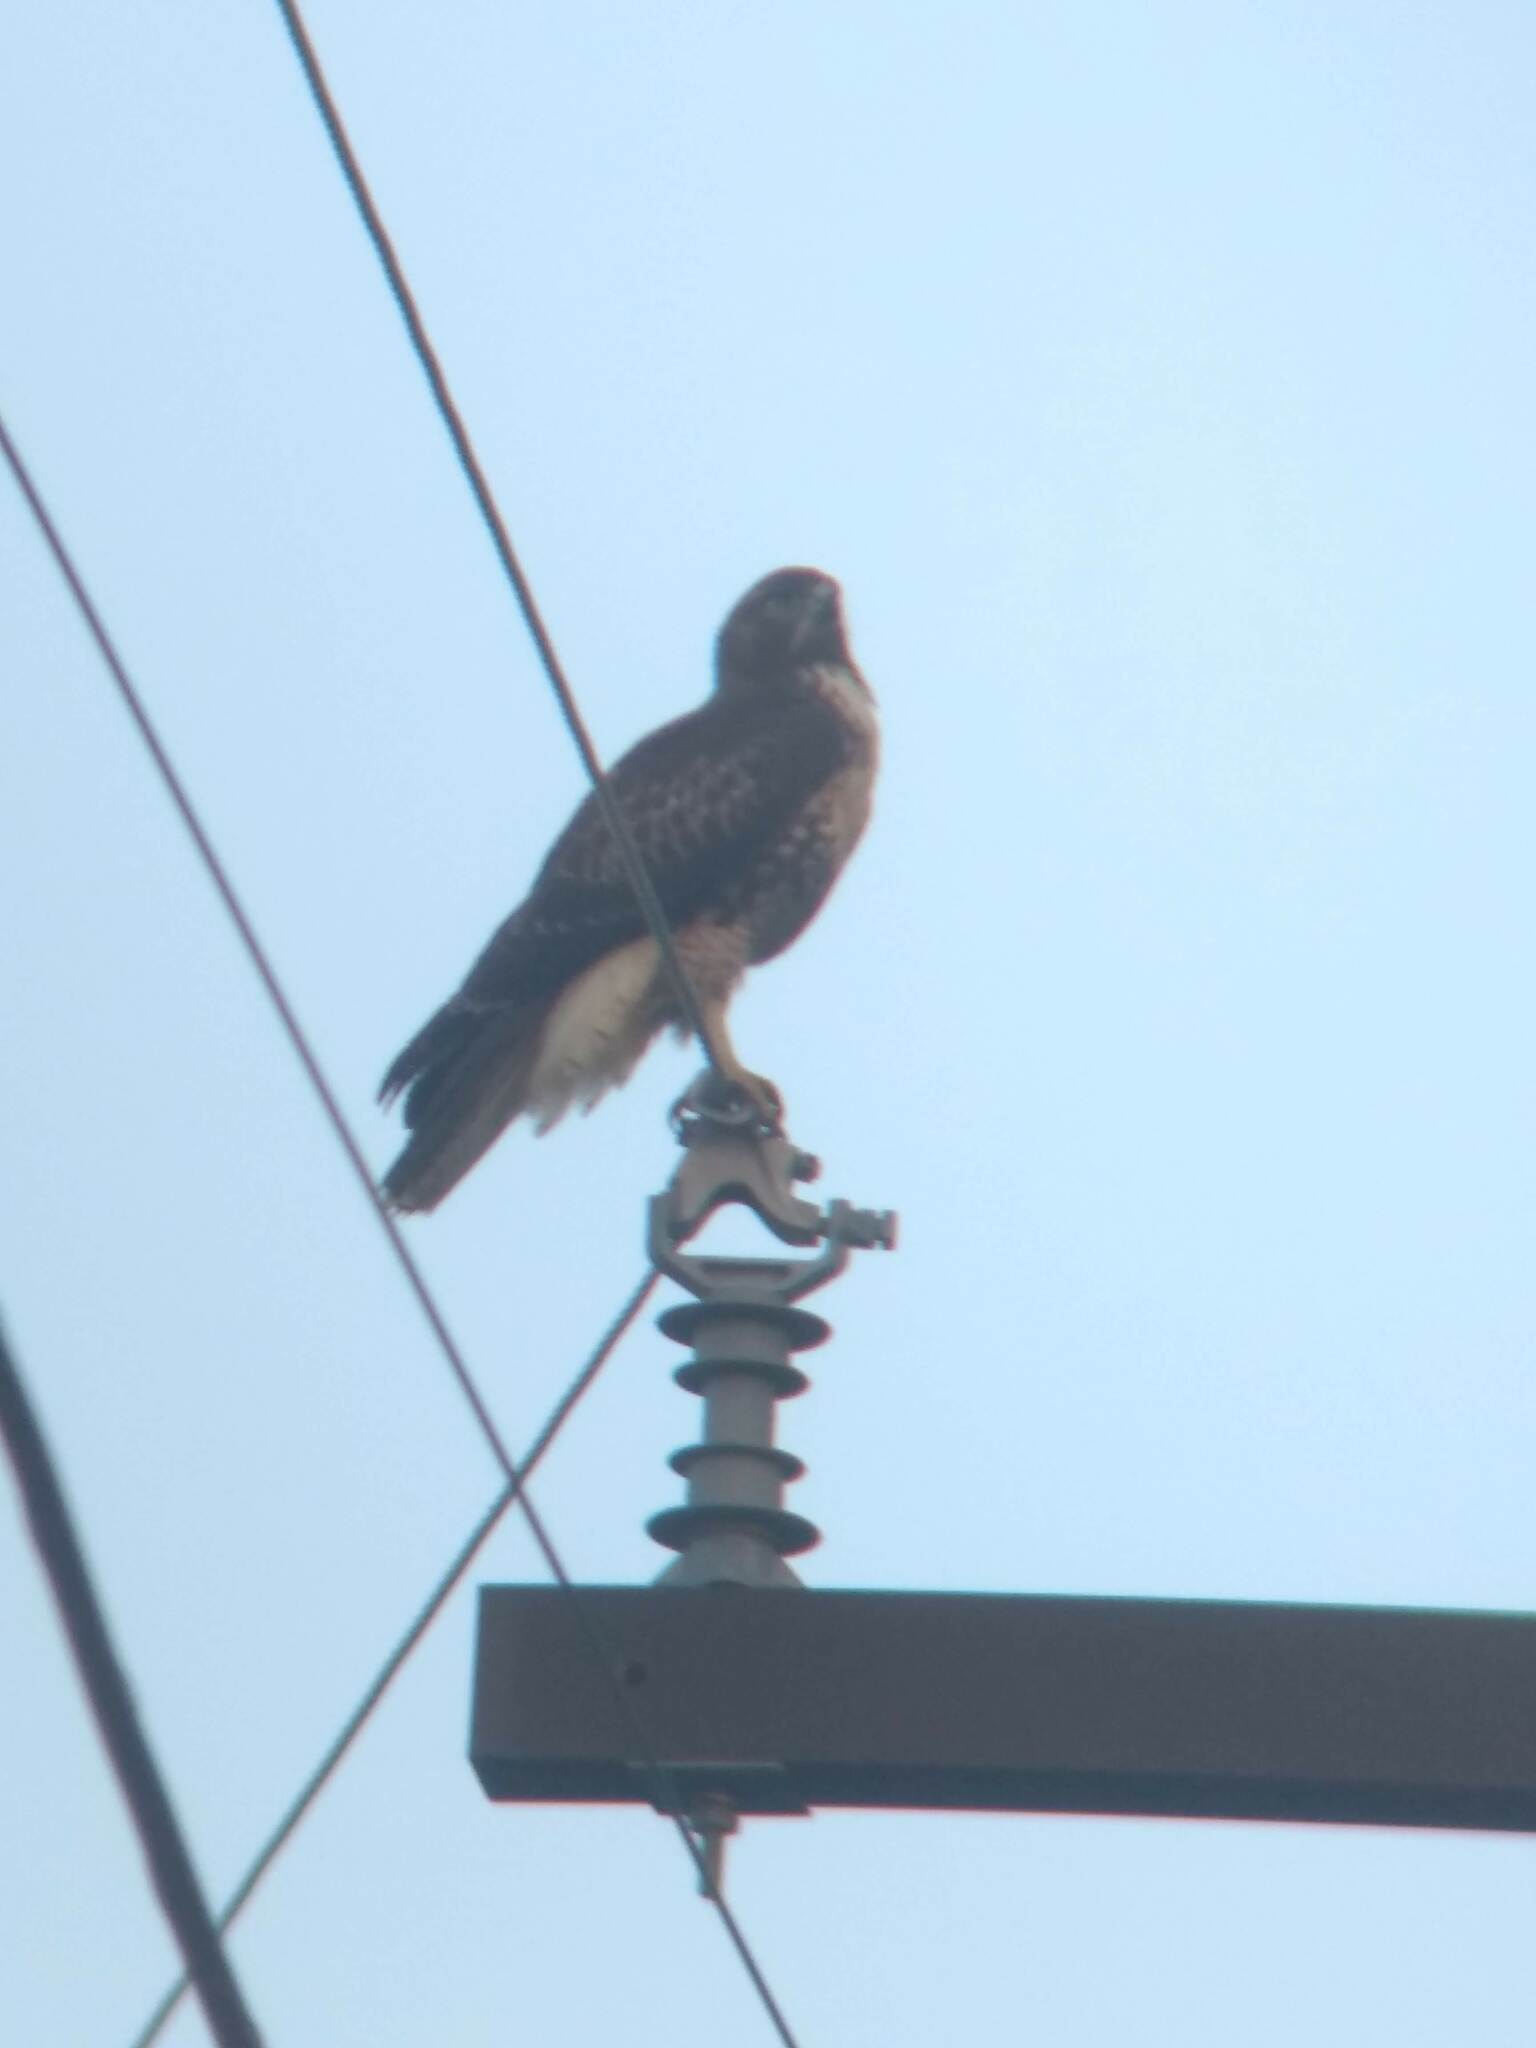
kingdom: Animalia
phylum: Chordata
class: Aves
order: Accipitriformes
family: Accipitridae
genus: Buteo
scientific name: Buteo jamaicensis
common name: Red-tailed hawk
